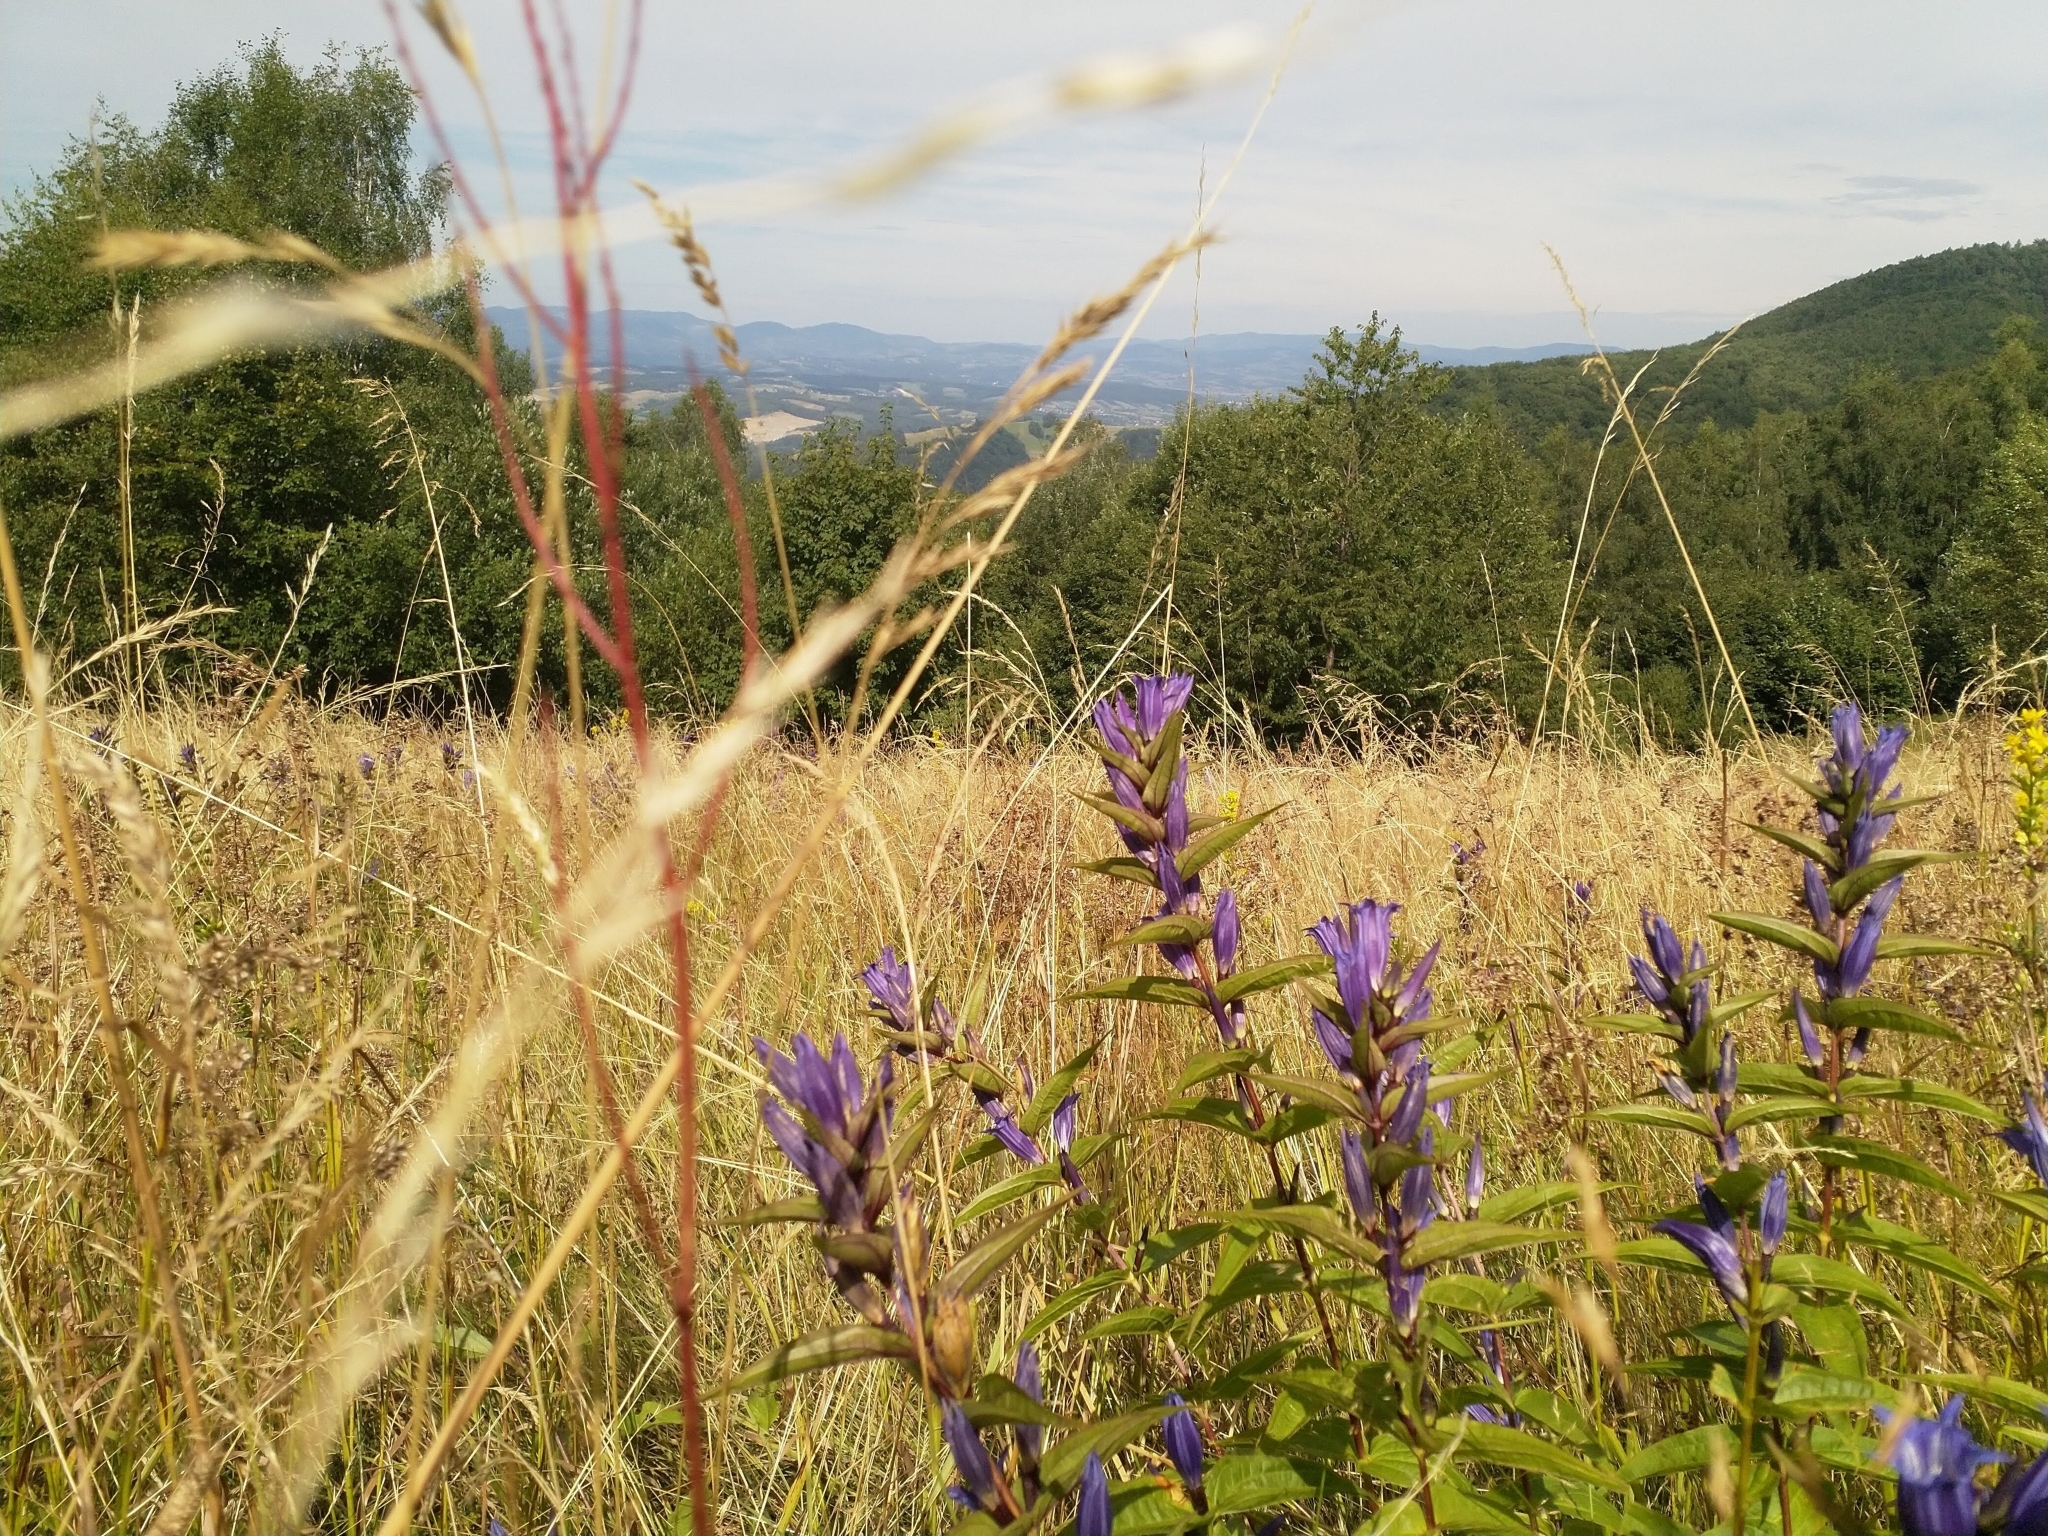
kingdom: Plantae
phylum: Tracheophyta
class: Magnoliopsida
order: Gentianales
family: Gentianaceae
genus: Gentiana
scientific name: Gentiana asclepiadea
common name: Willow gentian
